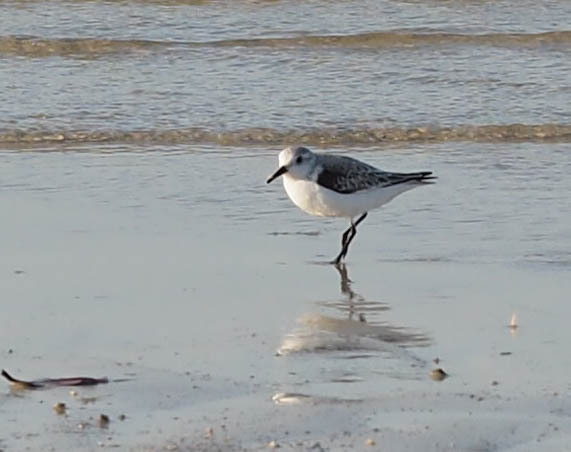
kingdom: Animalia
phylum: Chordata
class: Aves
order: Charadriiformes
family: Scolopacidae
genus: Calidris
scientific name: Calidris alba
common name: Sanderling
